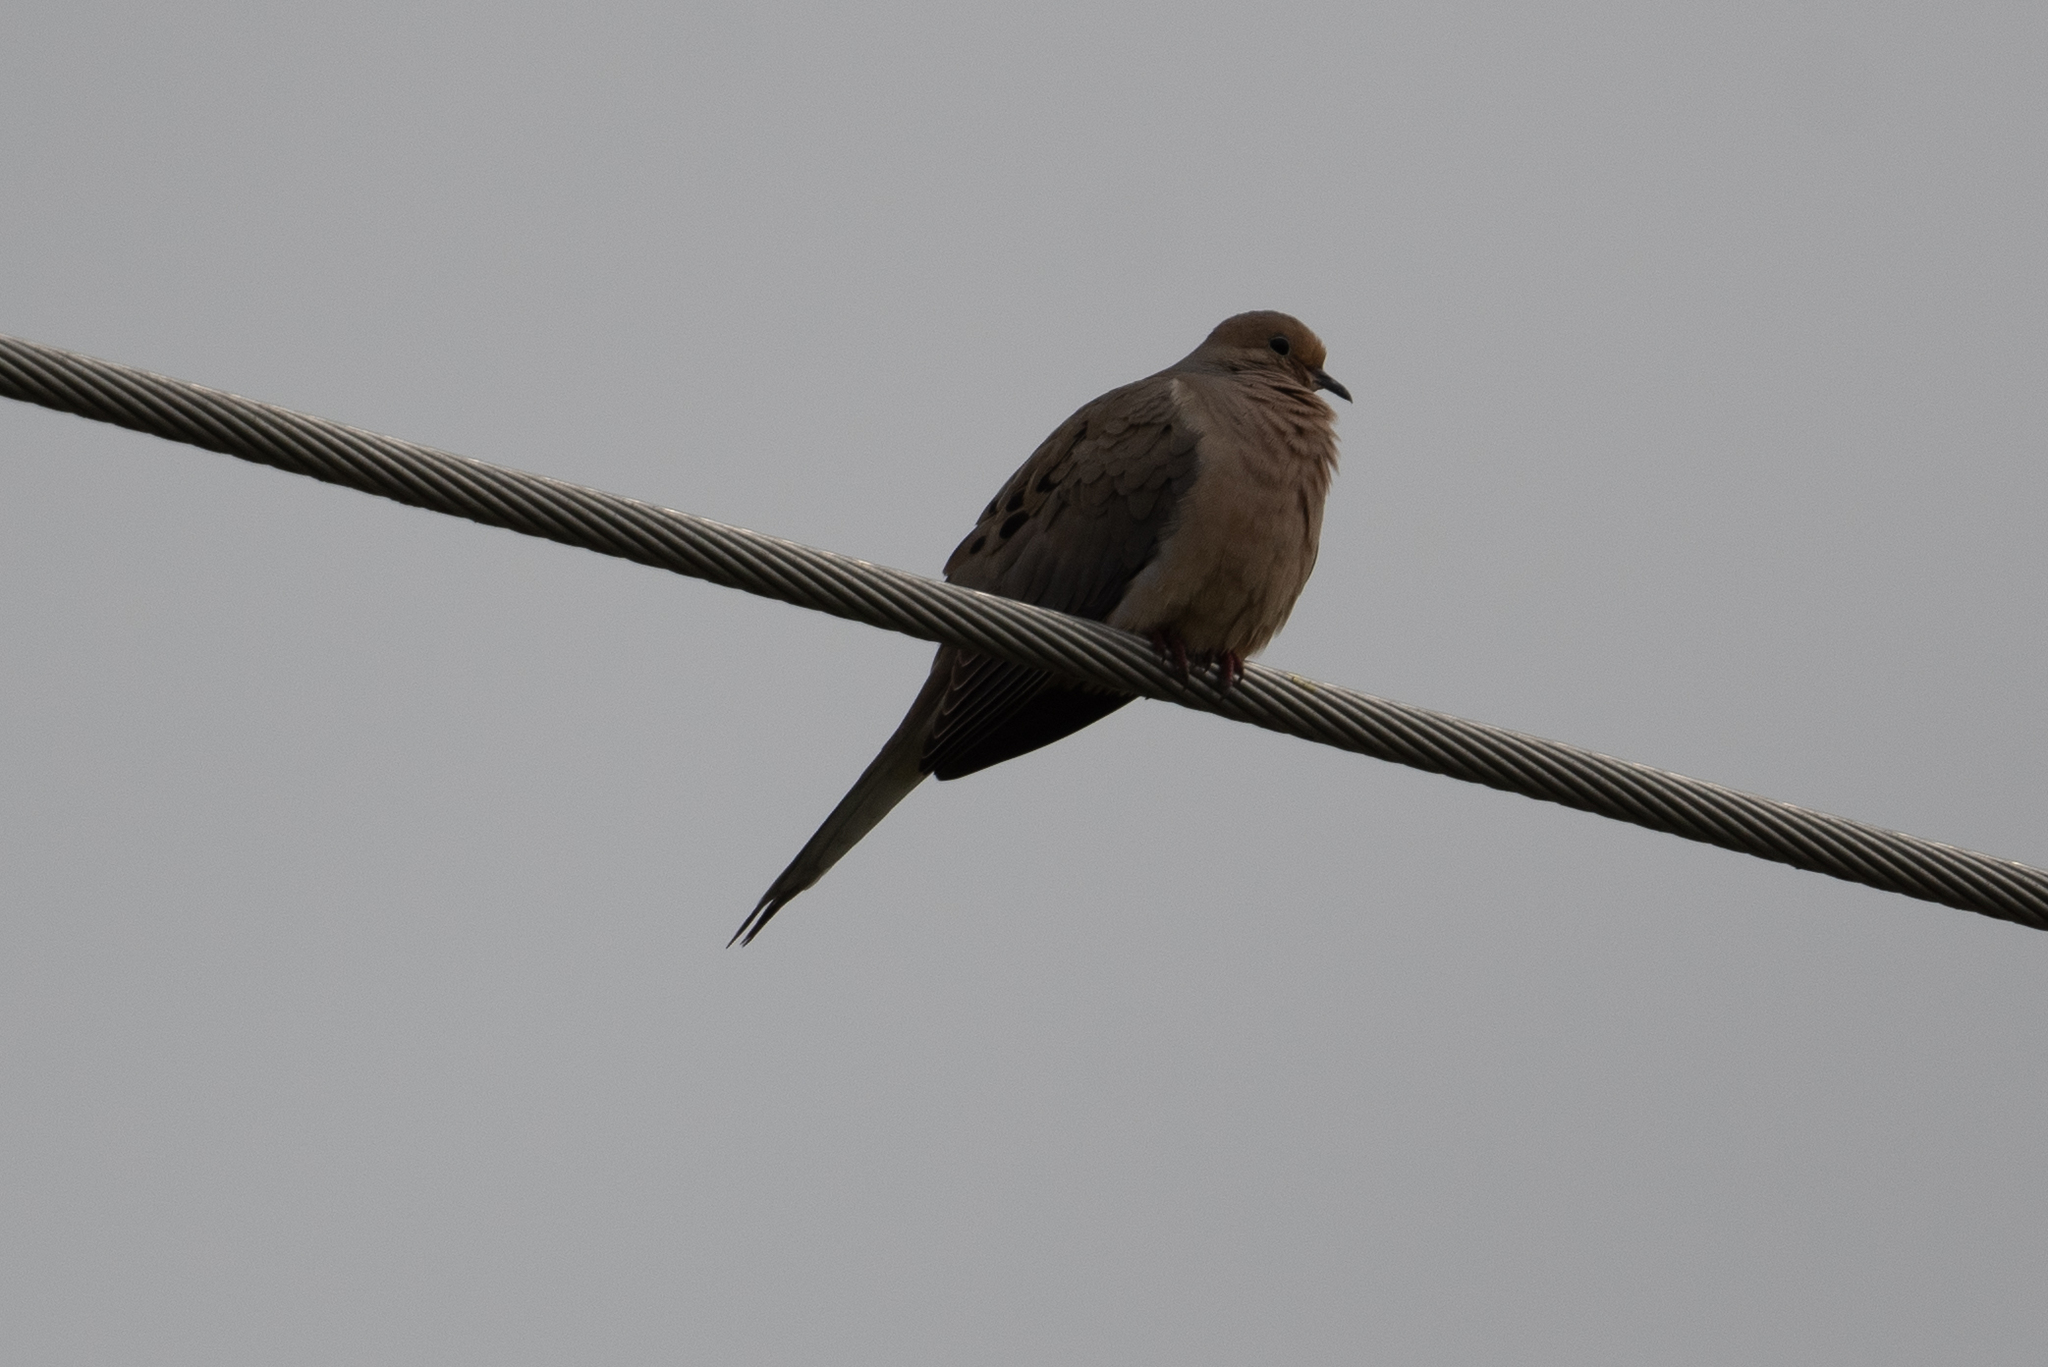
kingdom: Animalia
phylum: Chordata
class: Aves
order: Columbiformes
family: Columbidae
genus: Zenaida
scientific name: Zenaida macroura
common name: Mourning dove
